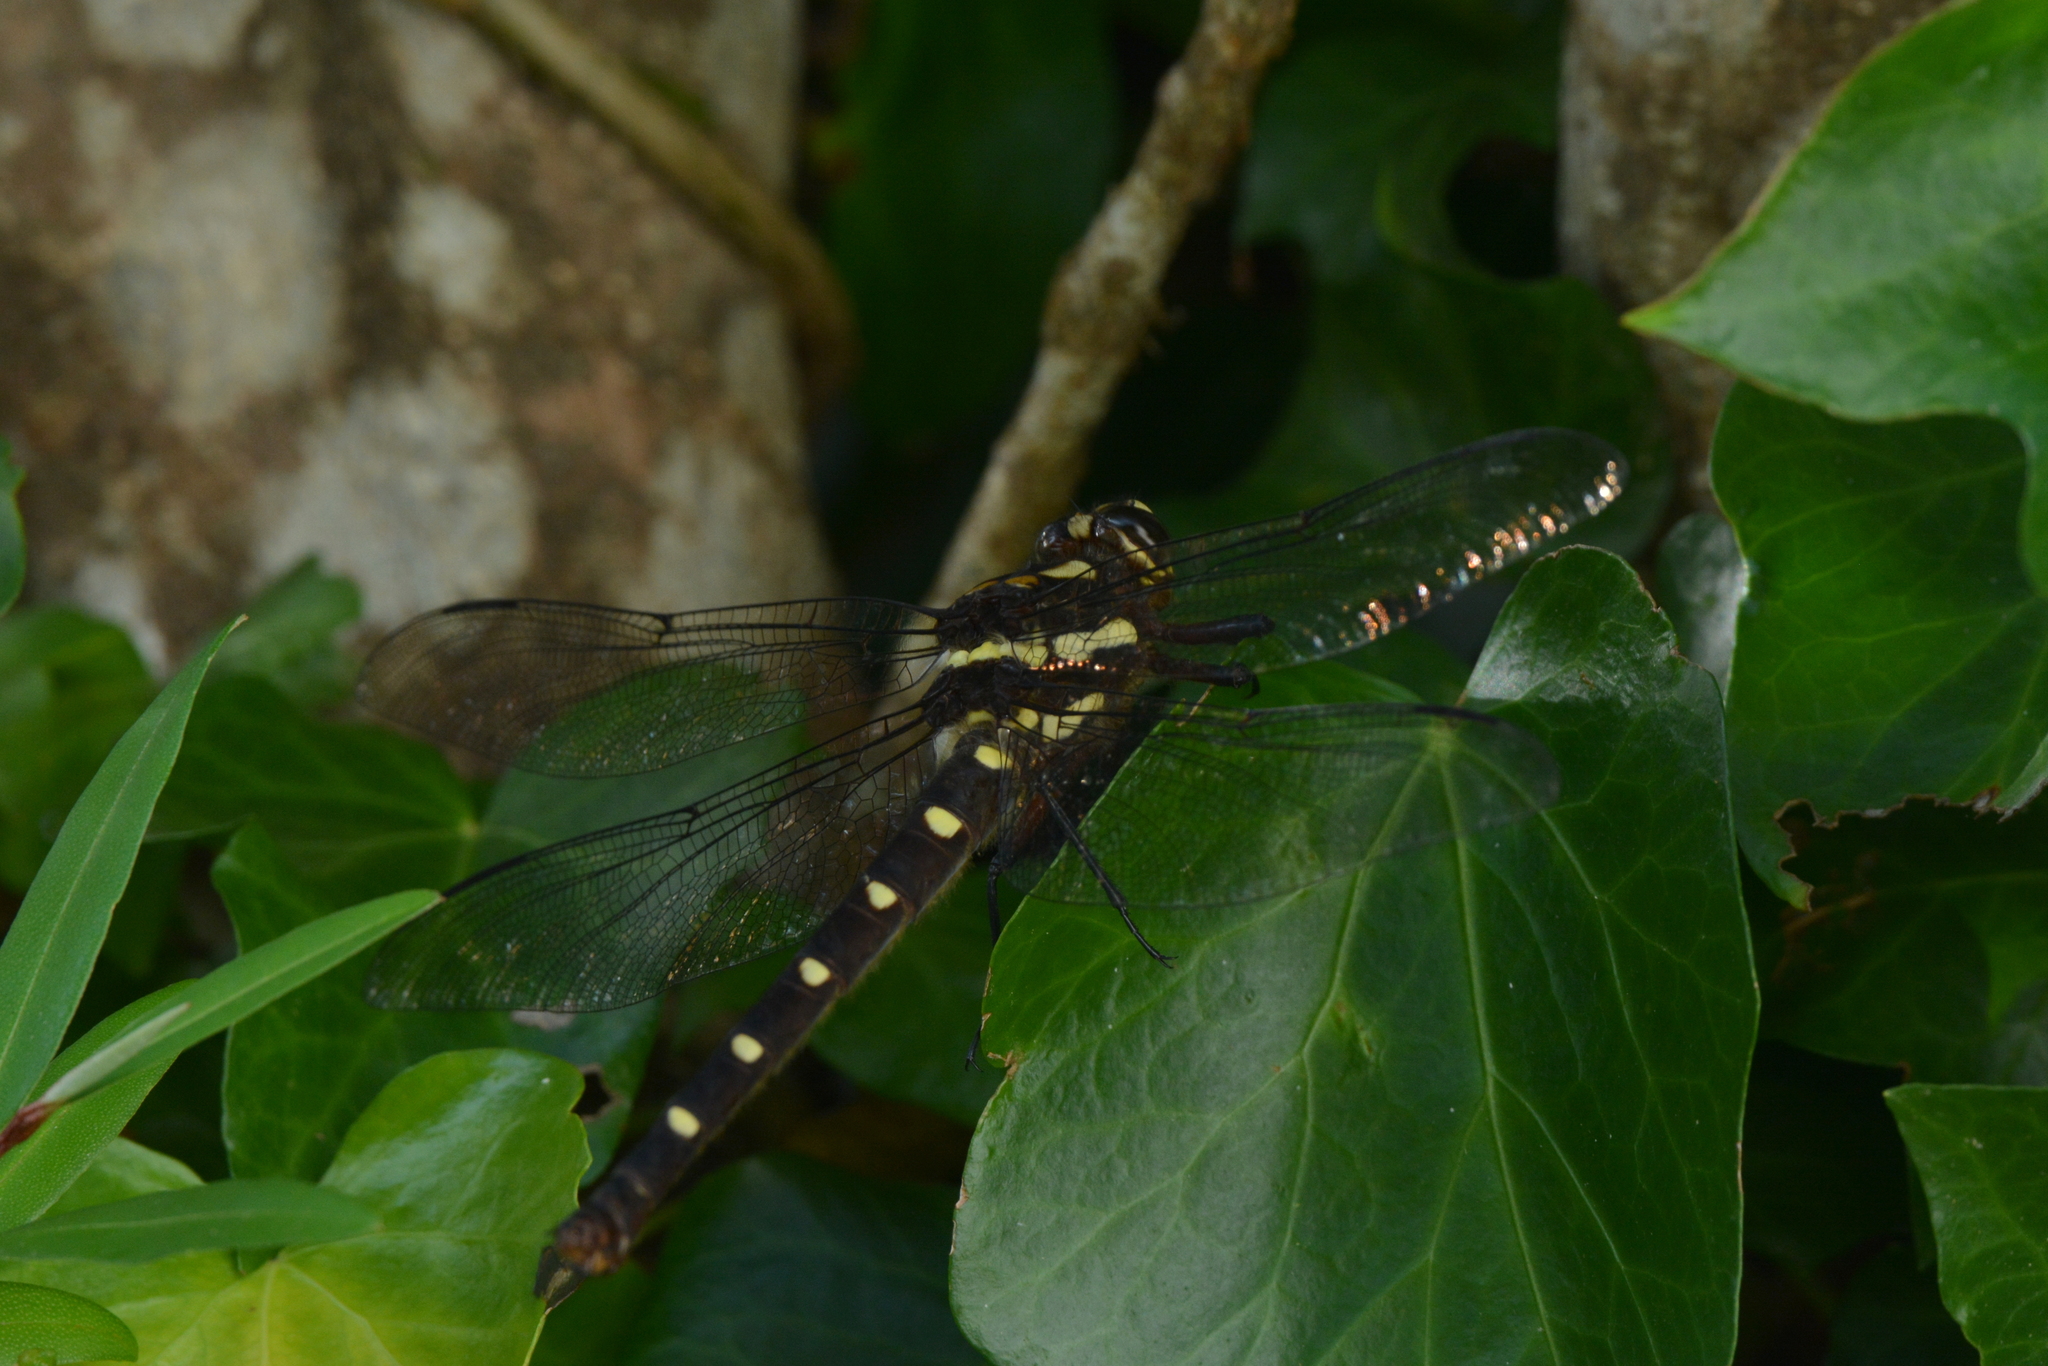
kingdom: Animalia
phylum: Arthropoda
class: Insecta
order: Odonata
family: Petaluridae
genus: Uropetala
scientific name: Uropetala carovei
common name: Bush giant dragonfly
